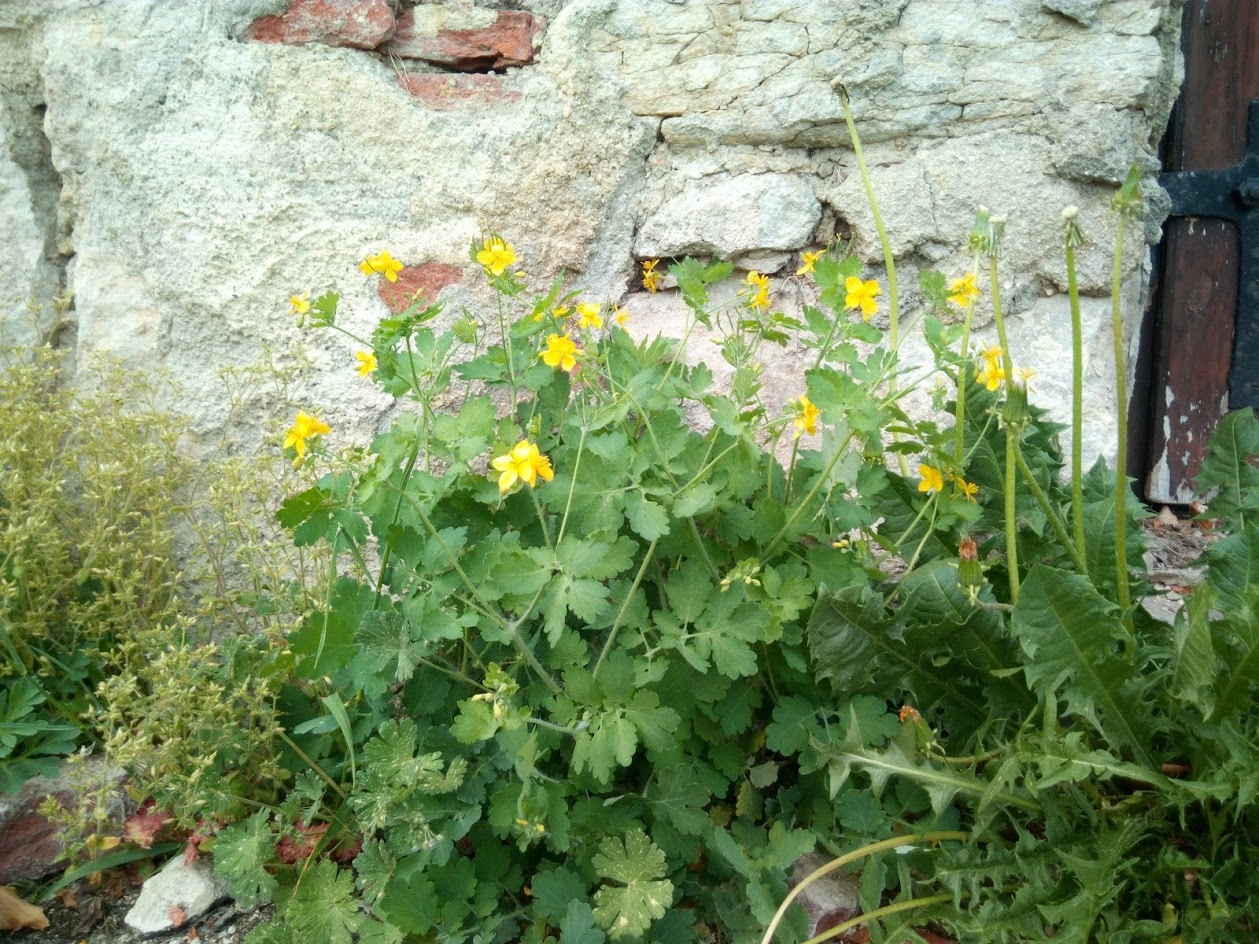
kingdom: Plantae
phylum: Tracheophyta
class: Magnoliopsida
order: Ranunculales
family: Papaveraceae
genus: Chelidonium
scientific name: Chelidonium majus
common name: Greater celandine
